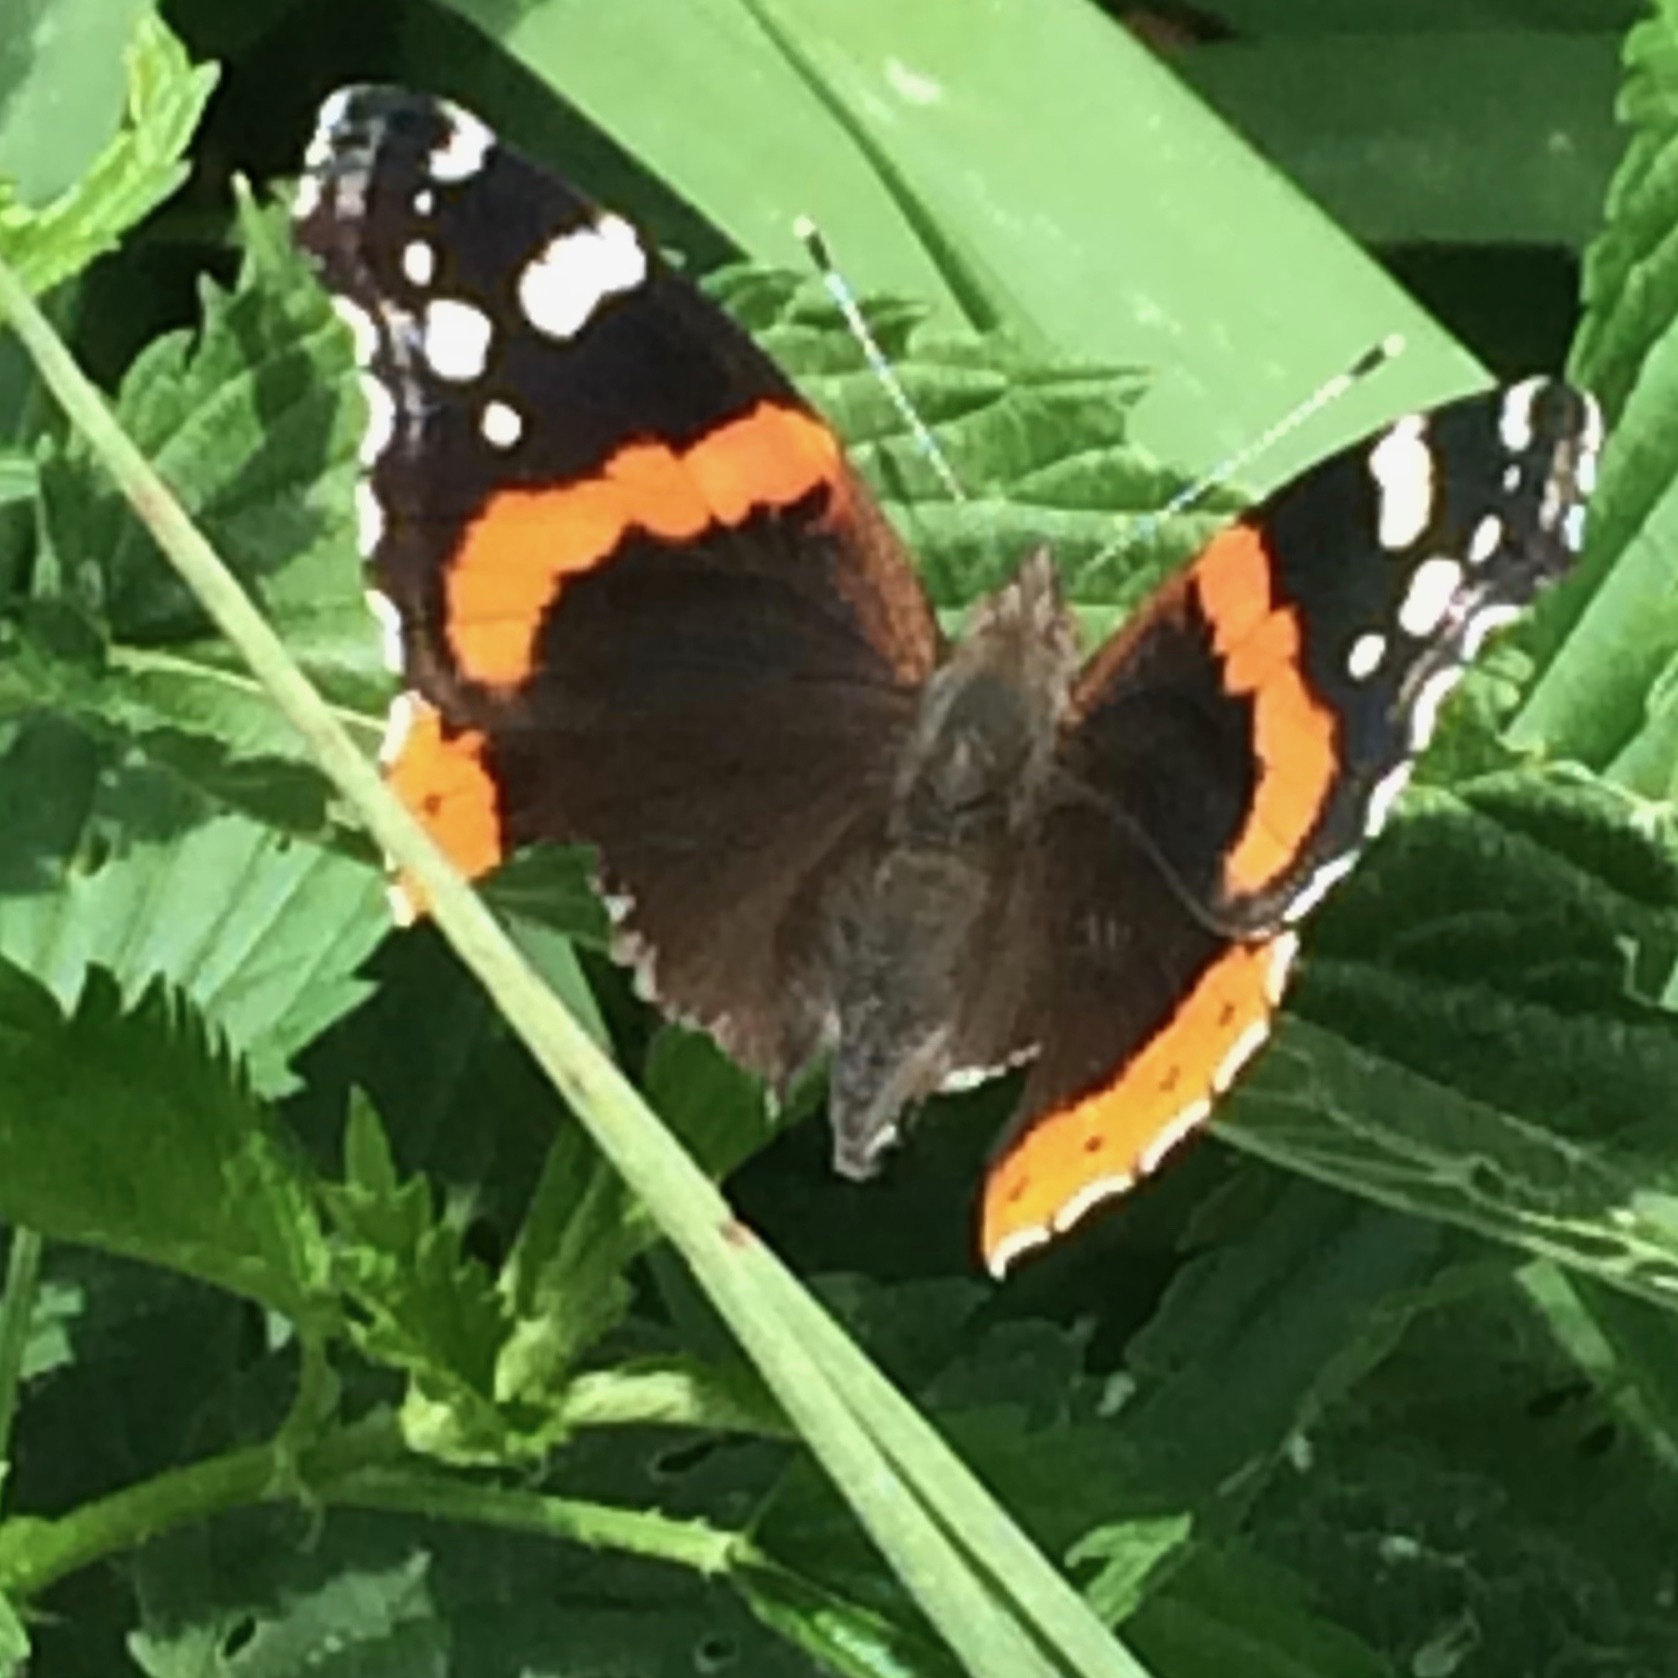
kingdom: Animalia
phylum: Arthropoda
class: Insecta
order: Lepidoptera
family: Nymphalidae
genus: Vanessa
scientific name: Vanessa atalanta
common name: Red admiral
